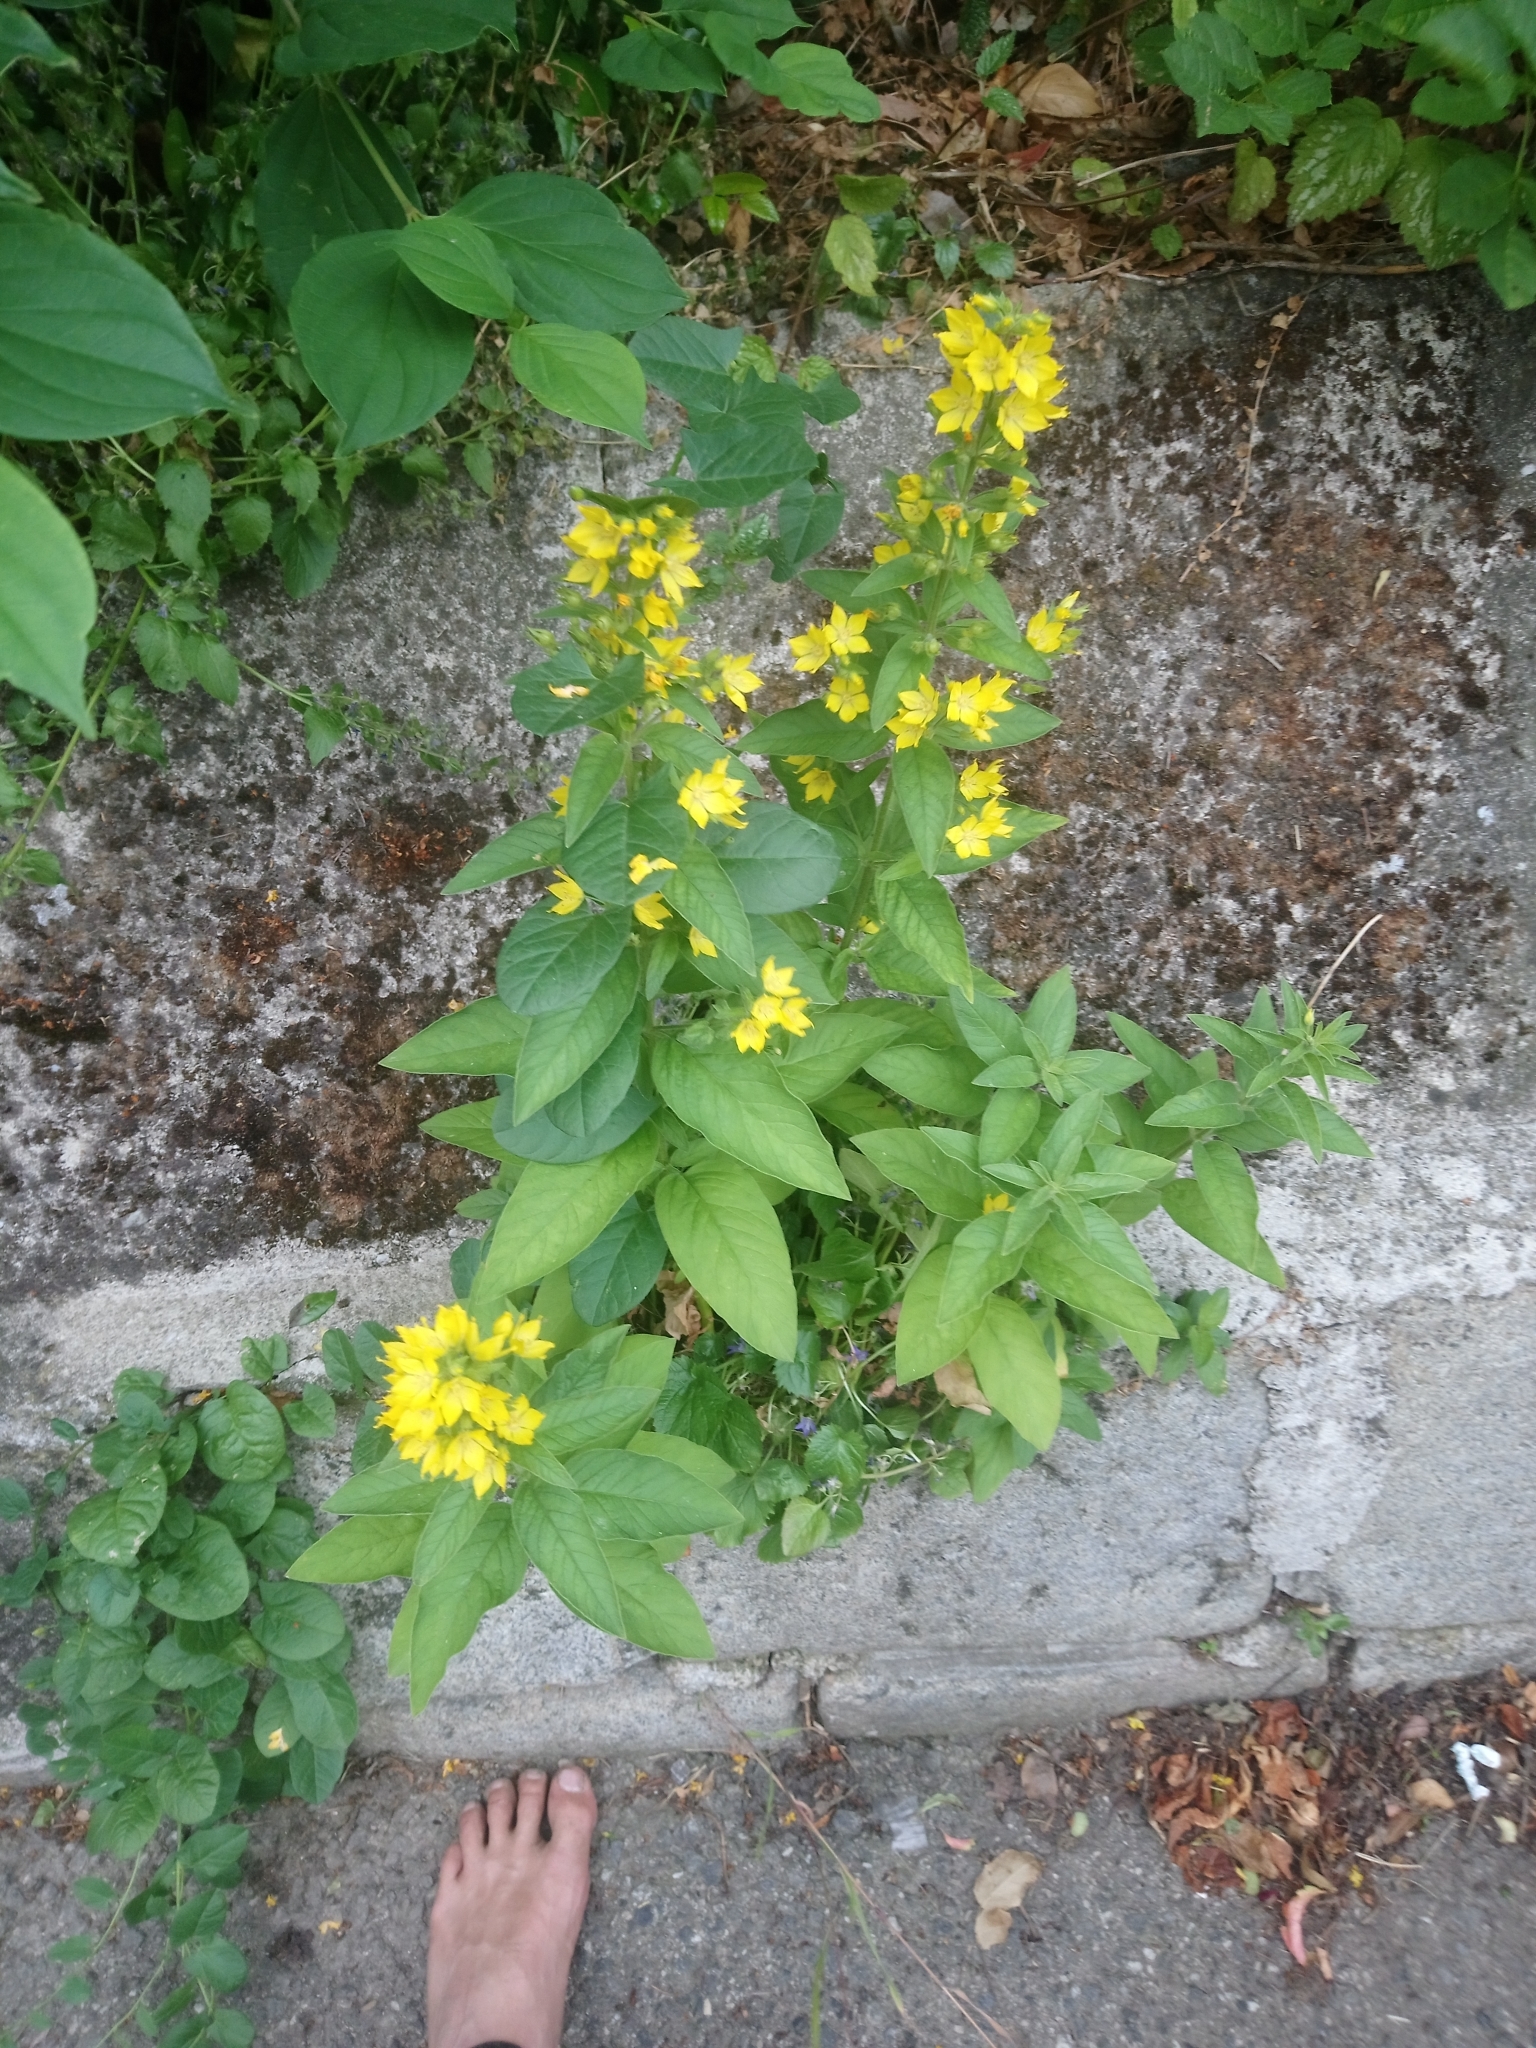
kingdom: Plantae
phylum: Tracheophyta
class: Magnoliopsida
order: Ericales
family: Primulaceae
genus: Lysimachia
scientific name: Lysimachia punctata
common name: Dotted loosestrife
